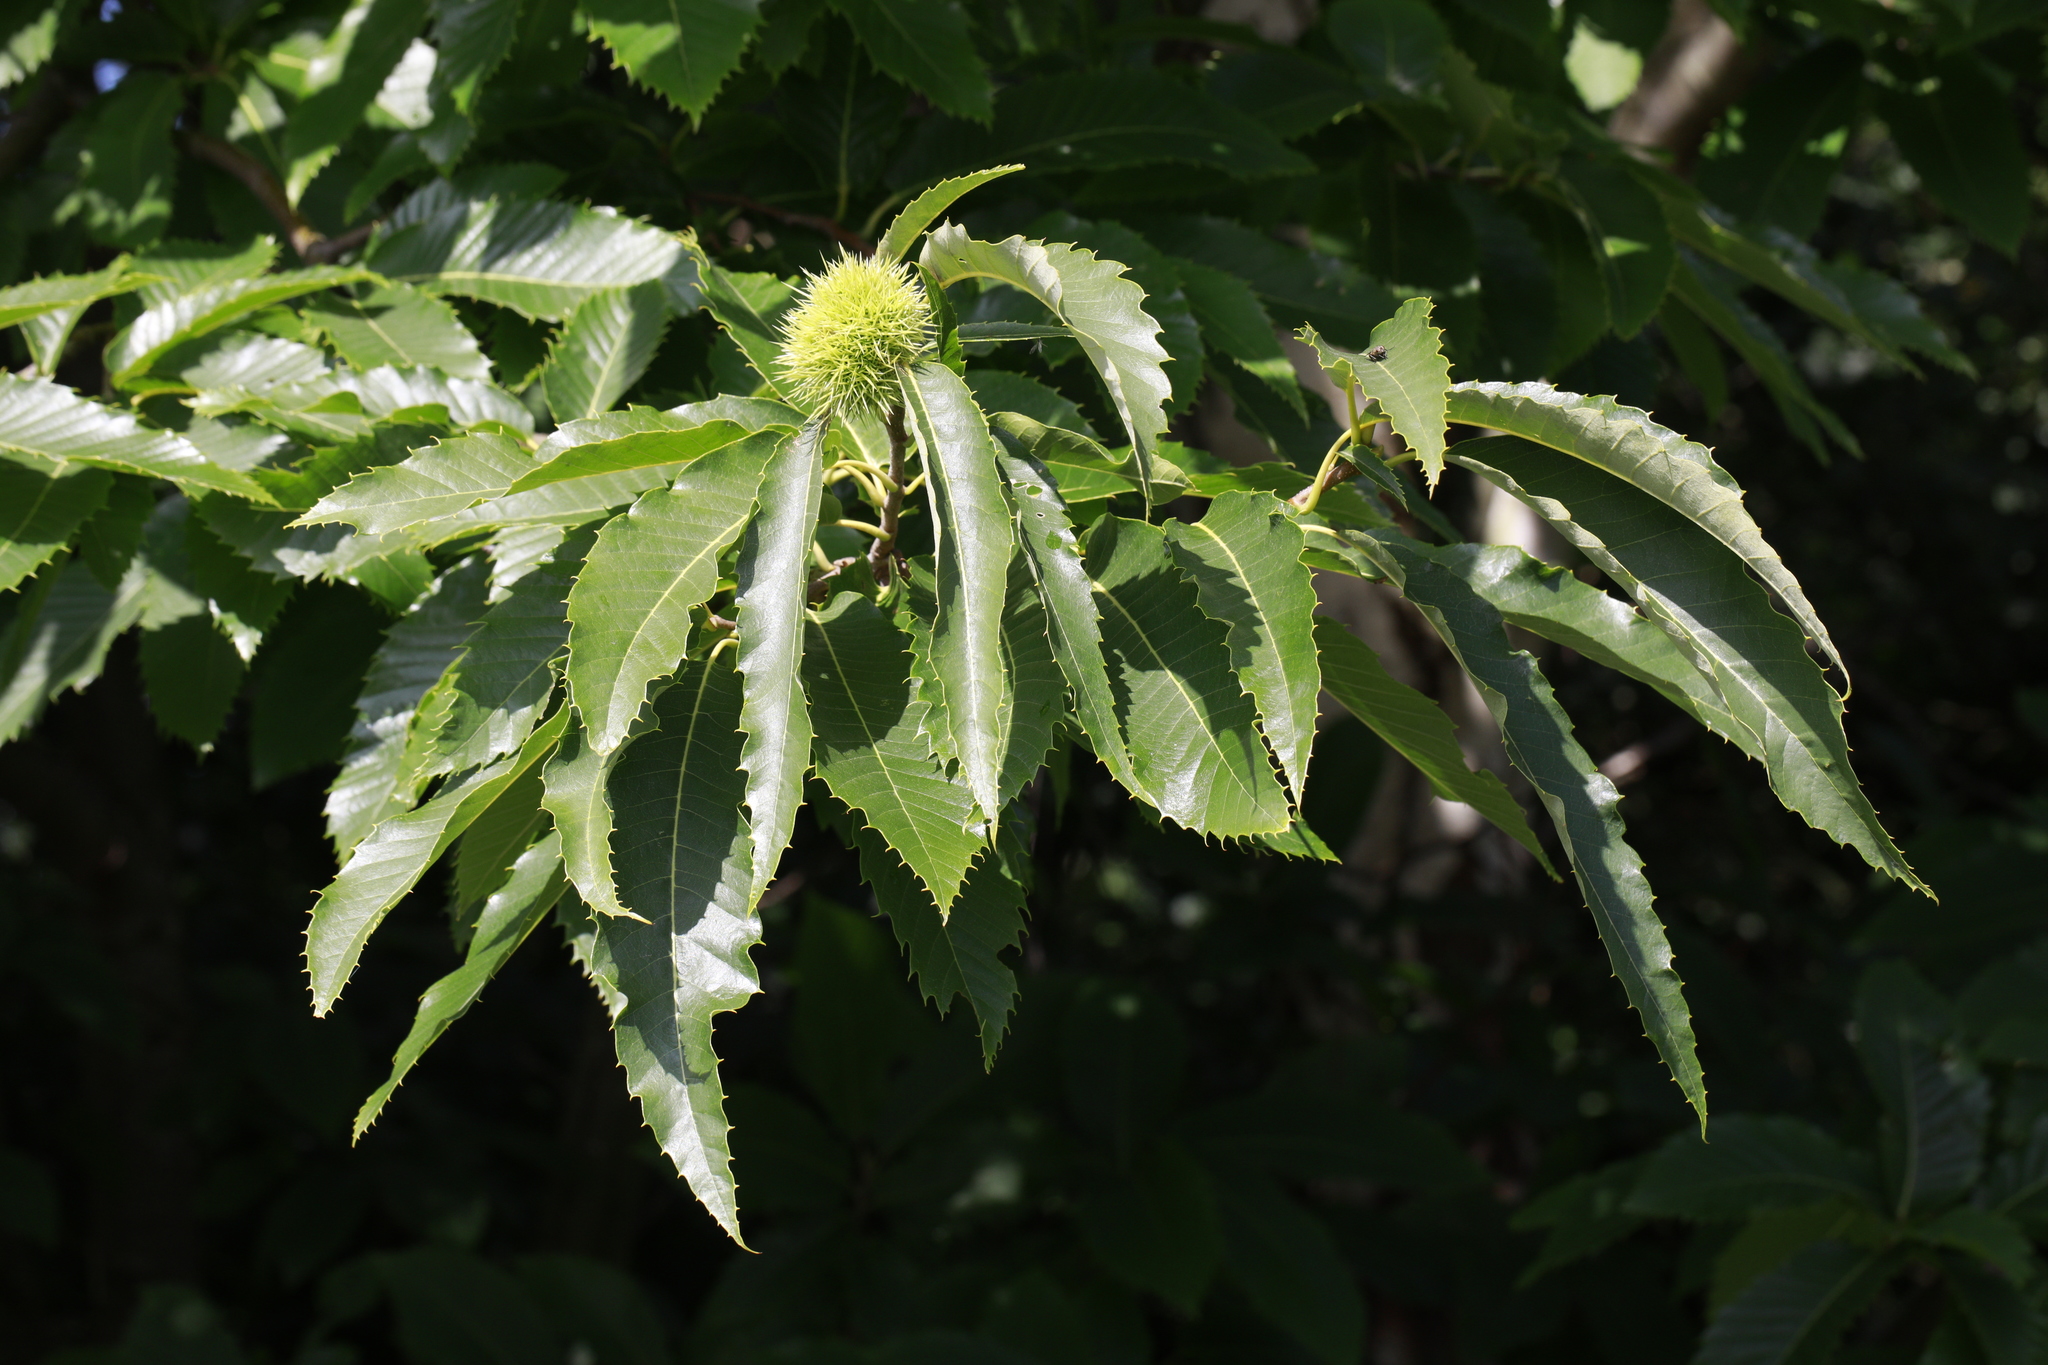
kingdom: Plantae
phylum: Tracheophyta
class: Magnoliopsida
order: Fagales
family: Fagaceae
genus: Castanea
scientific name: Castanea sativa
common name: Sweet chestnut
